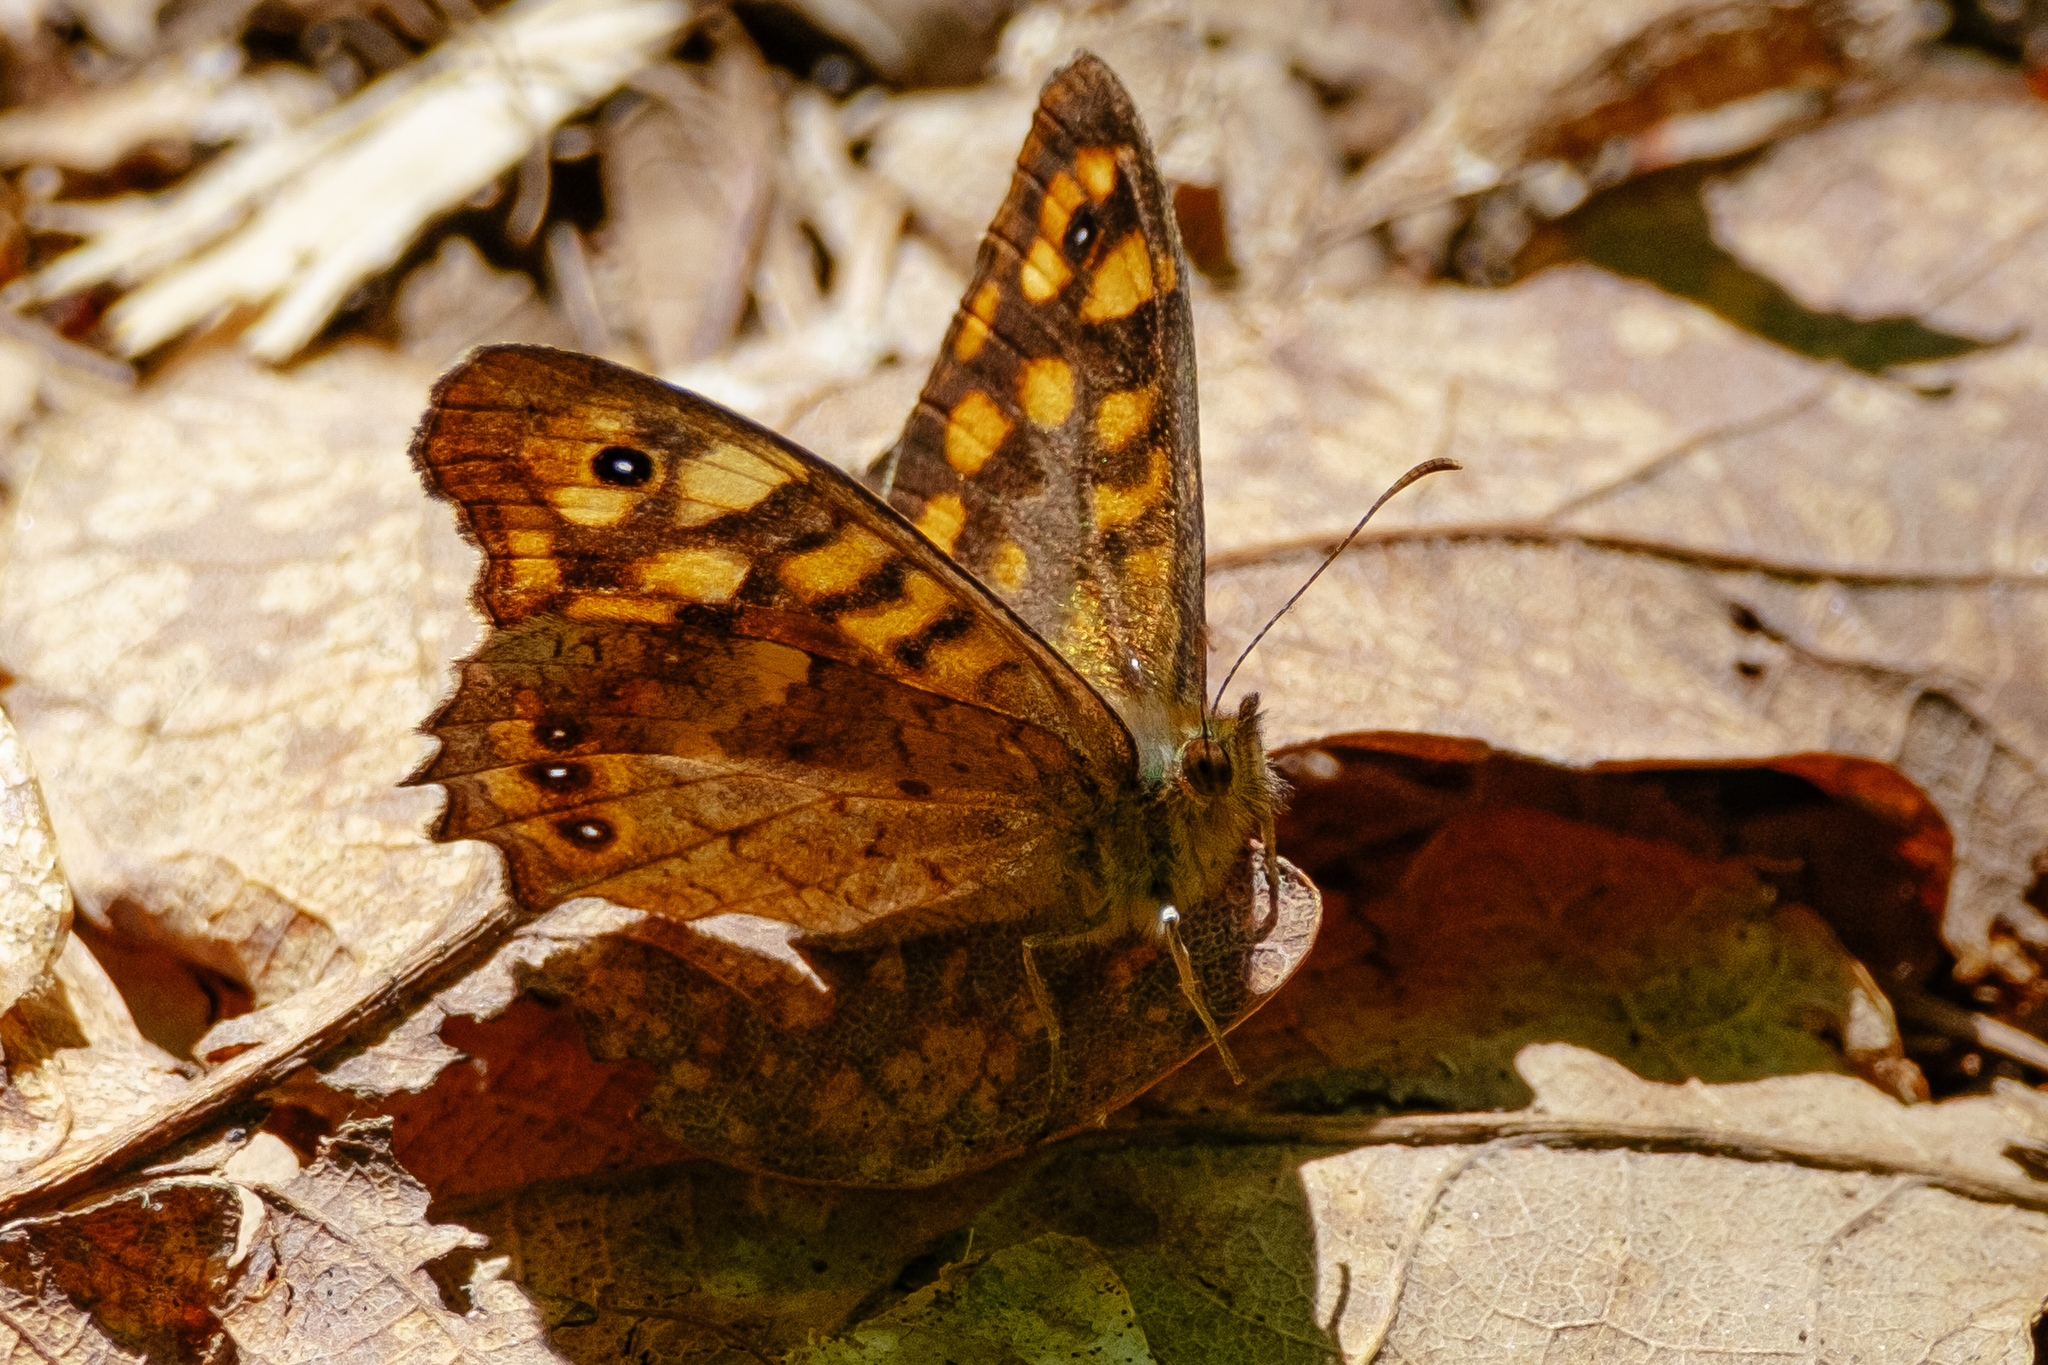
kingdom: Animalia
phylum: Arthropoda
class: Insecta
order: Lepidoptera
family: Nymphalidae
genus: Pararge
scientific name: Pararge aegeria
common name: Speckled wood
